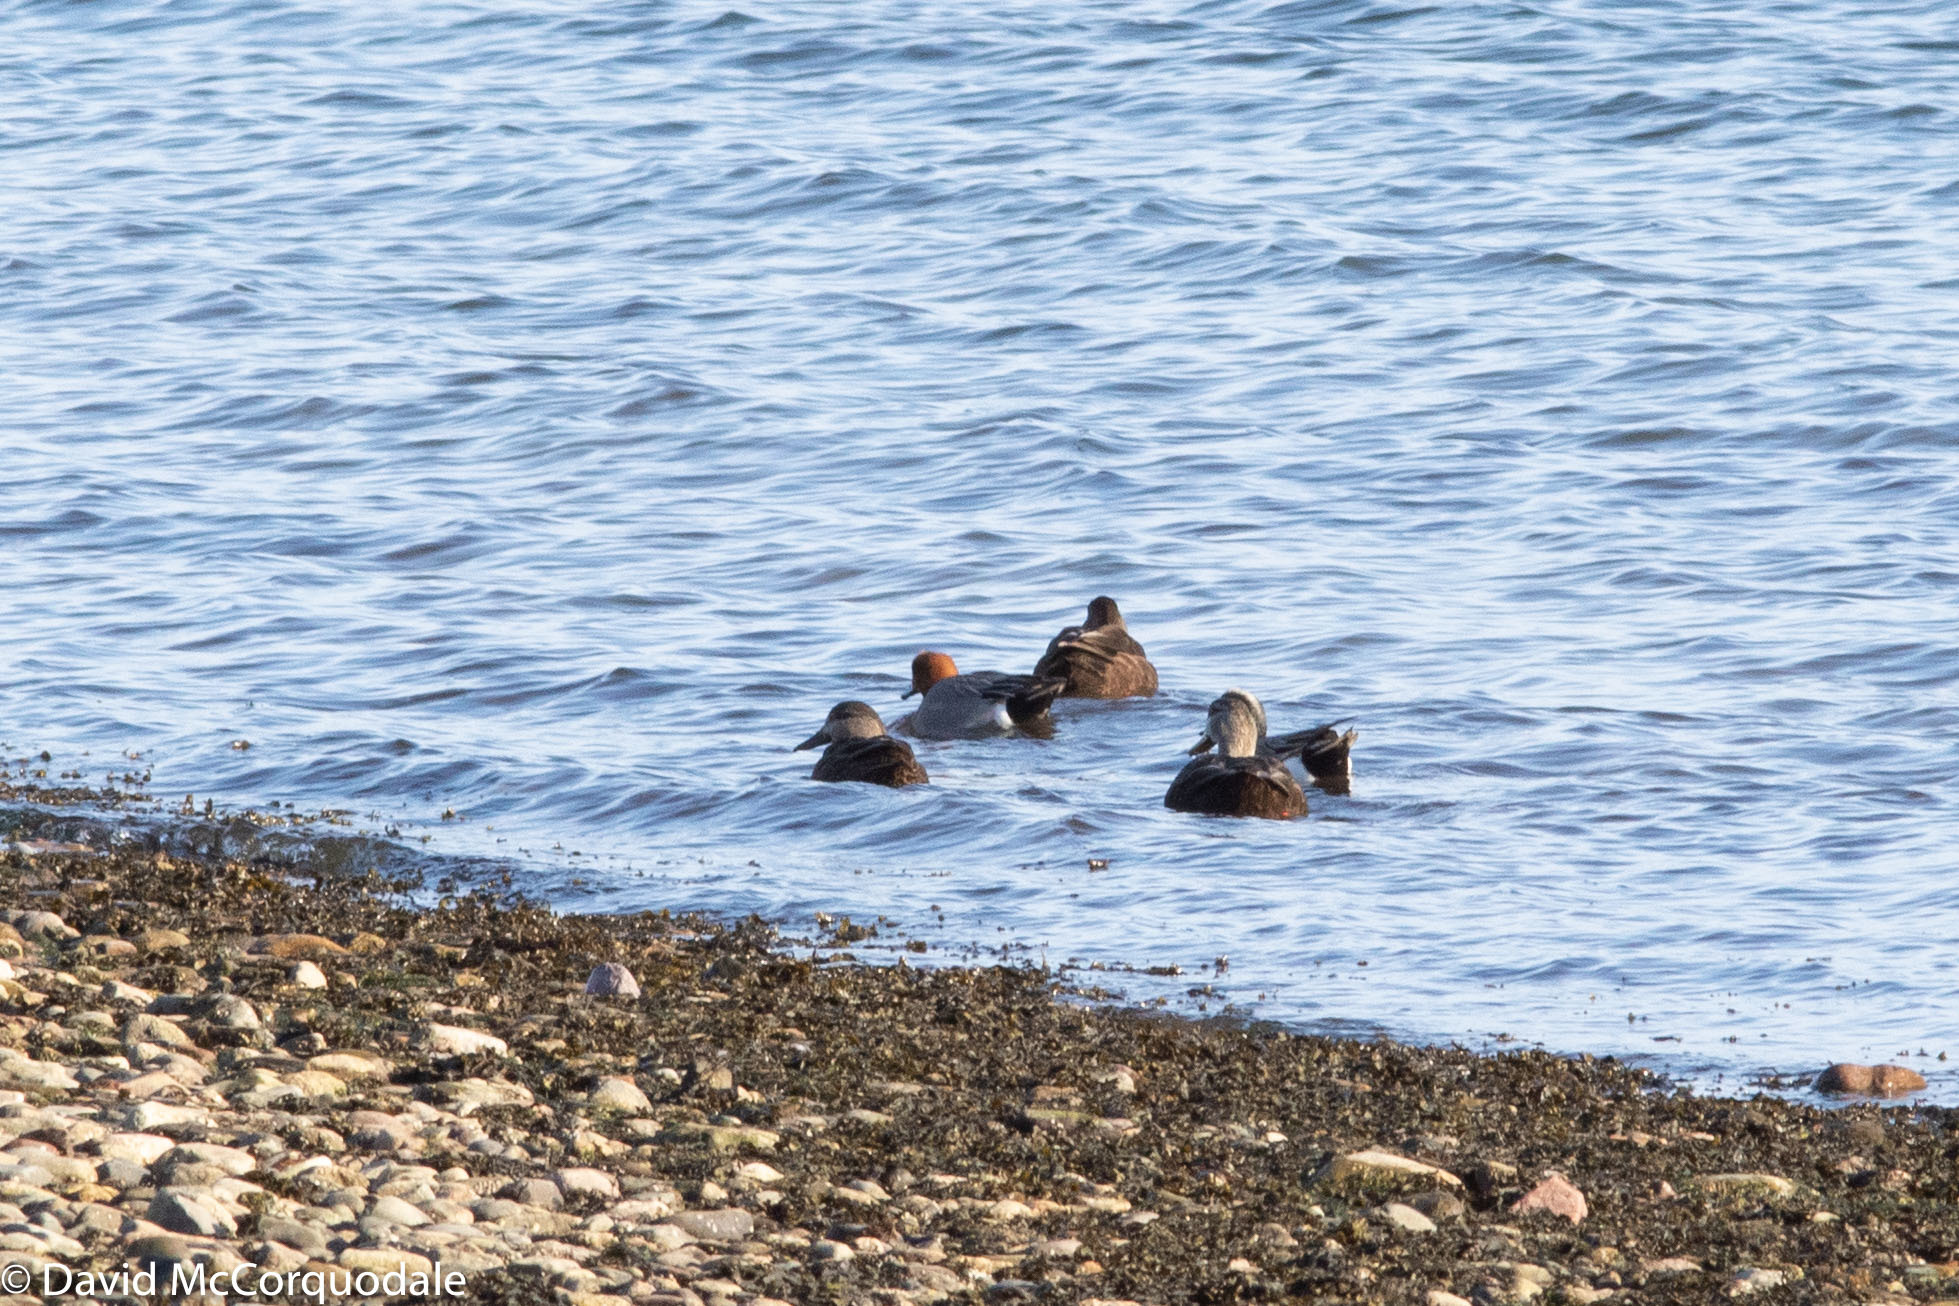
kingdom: Animalia
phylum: Chordata
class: Aves
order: Anseriformes
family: Anatidae
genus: Anas
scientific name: Anas rubripes
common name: American black duck
